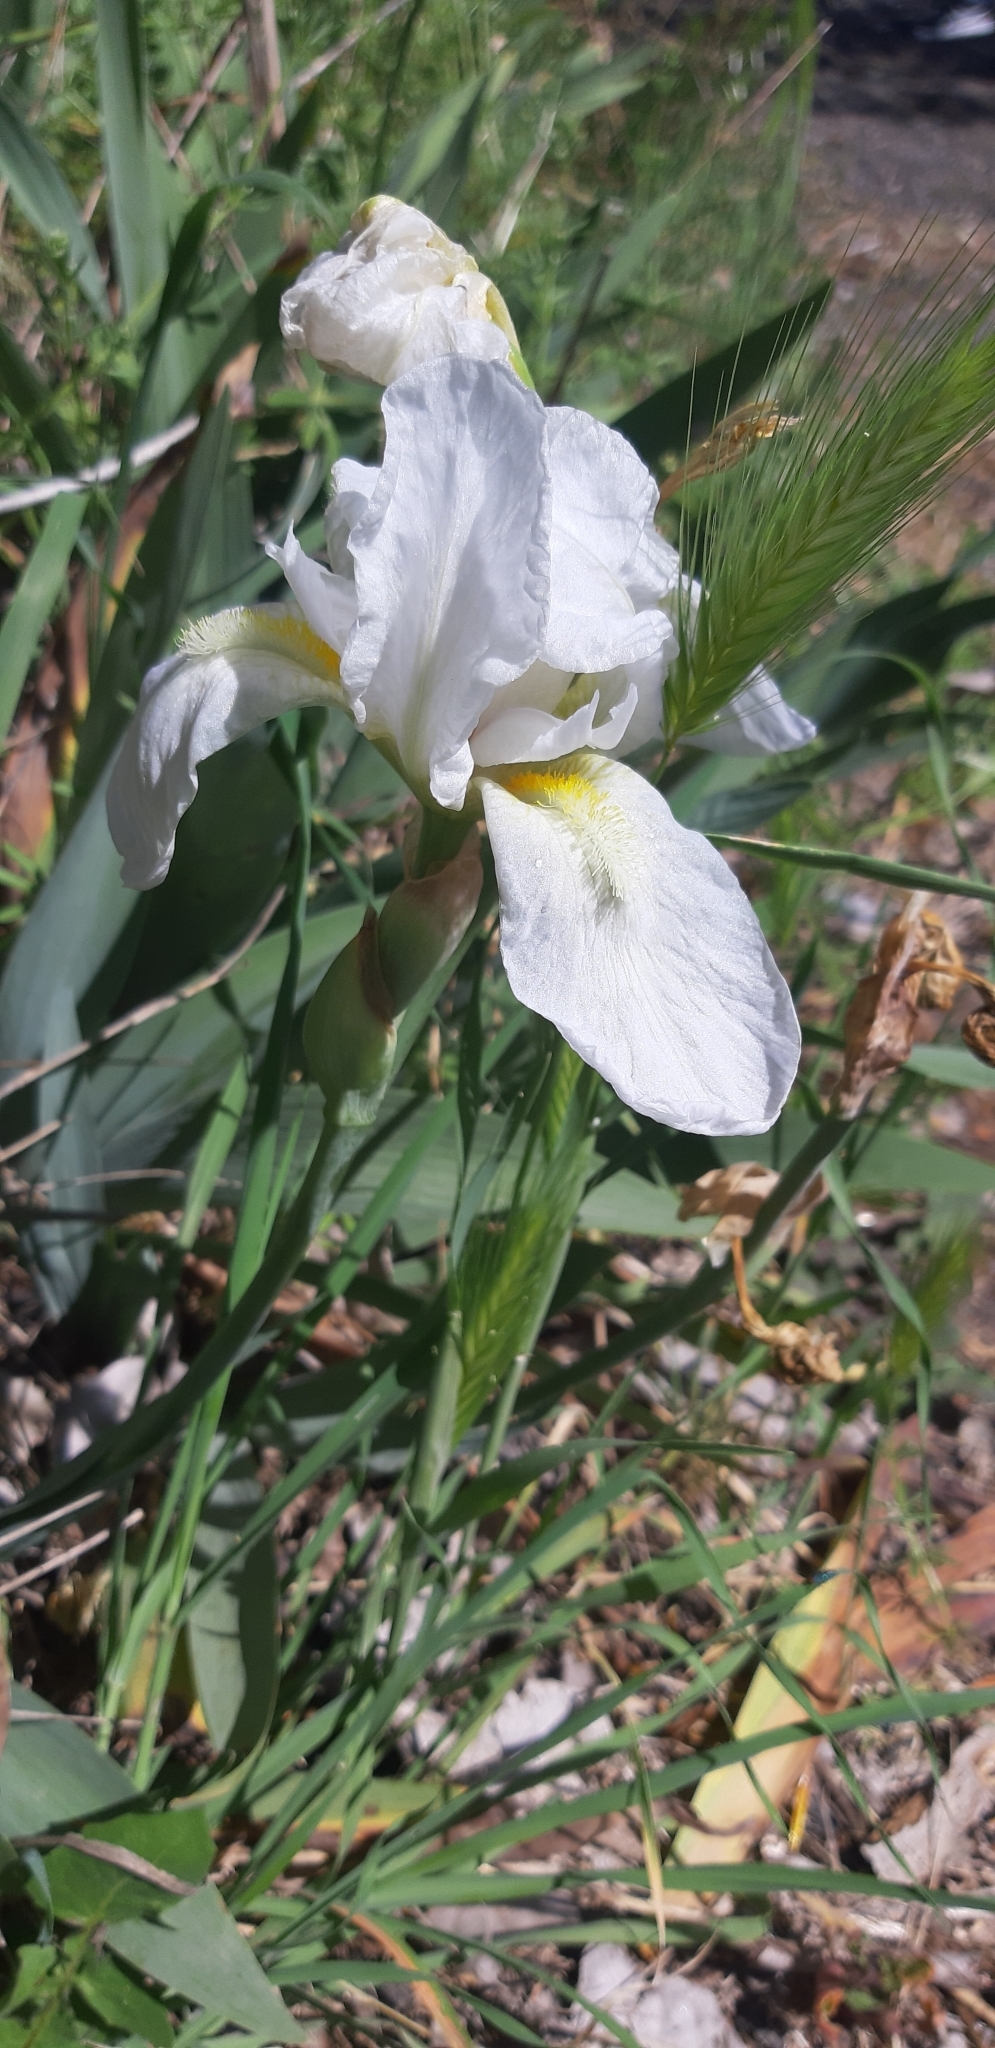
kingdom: Plantae
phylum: Tracheophyta
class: Liliopsida
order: Asparagales
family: Iridaceae
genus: Iris
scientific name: Iris florentina
